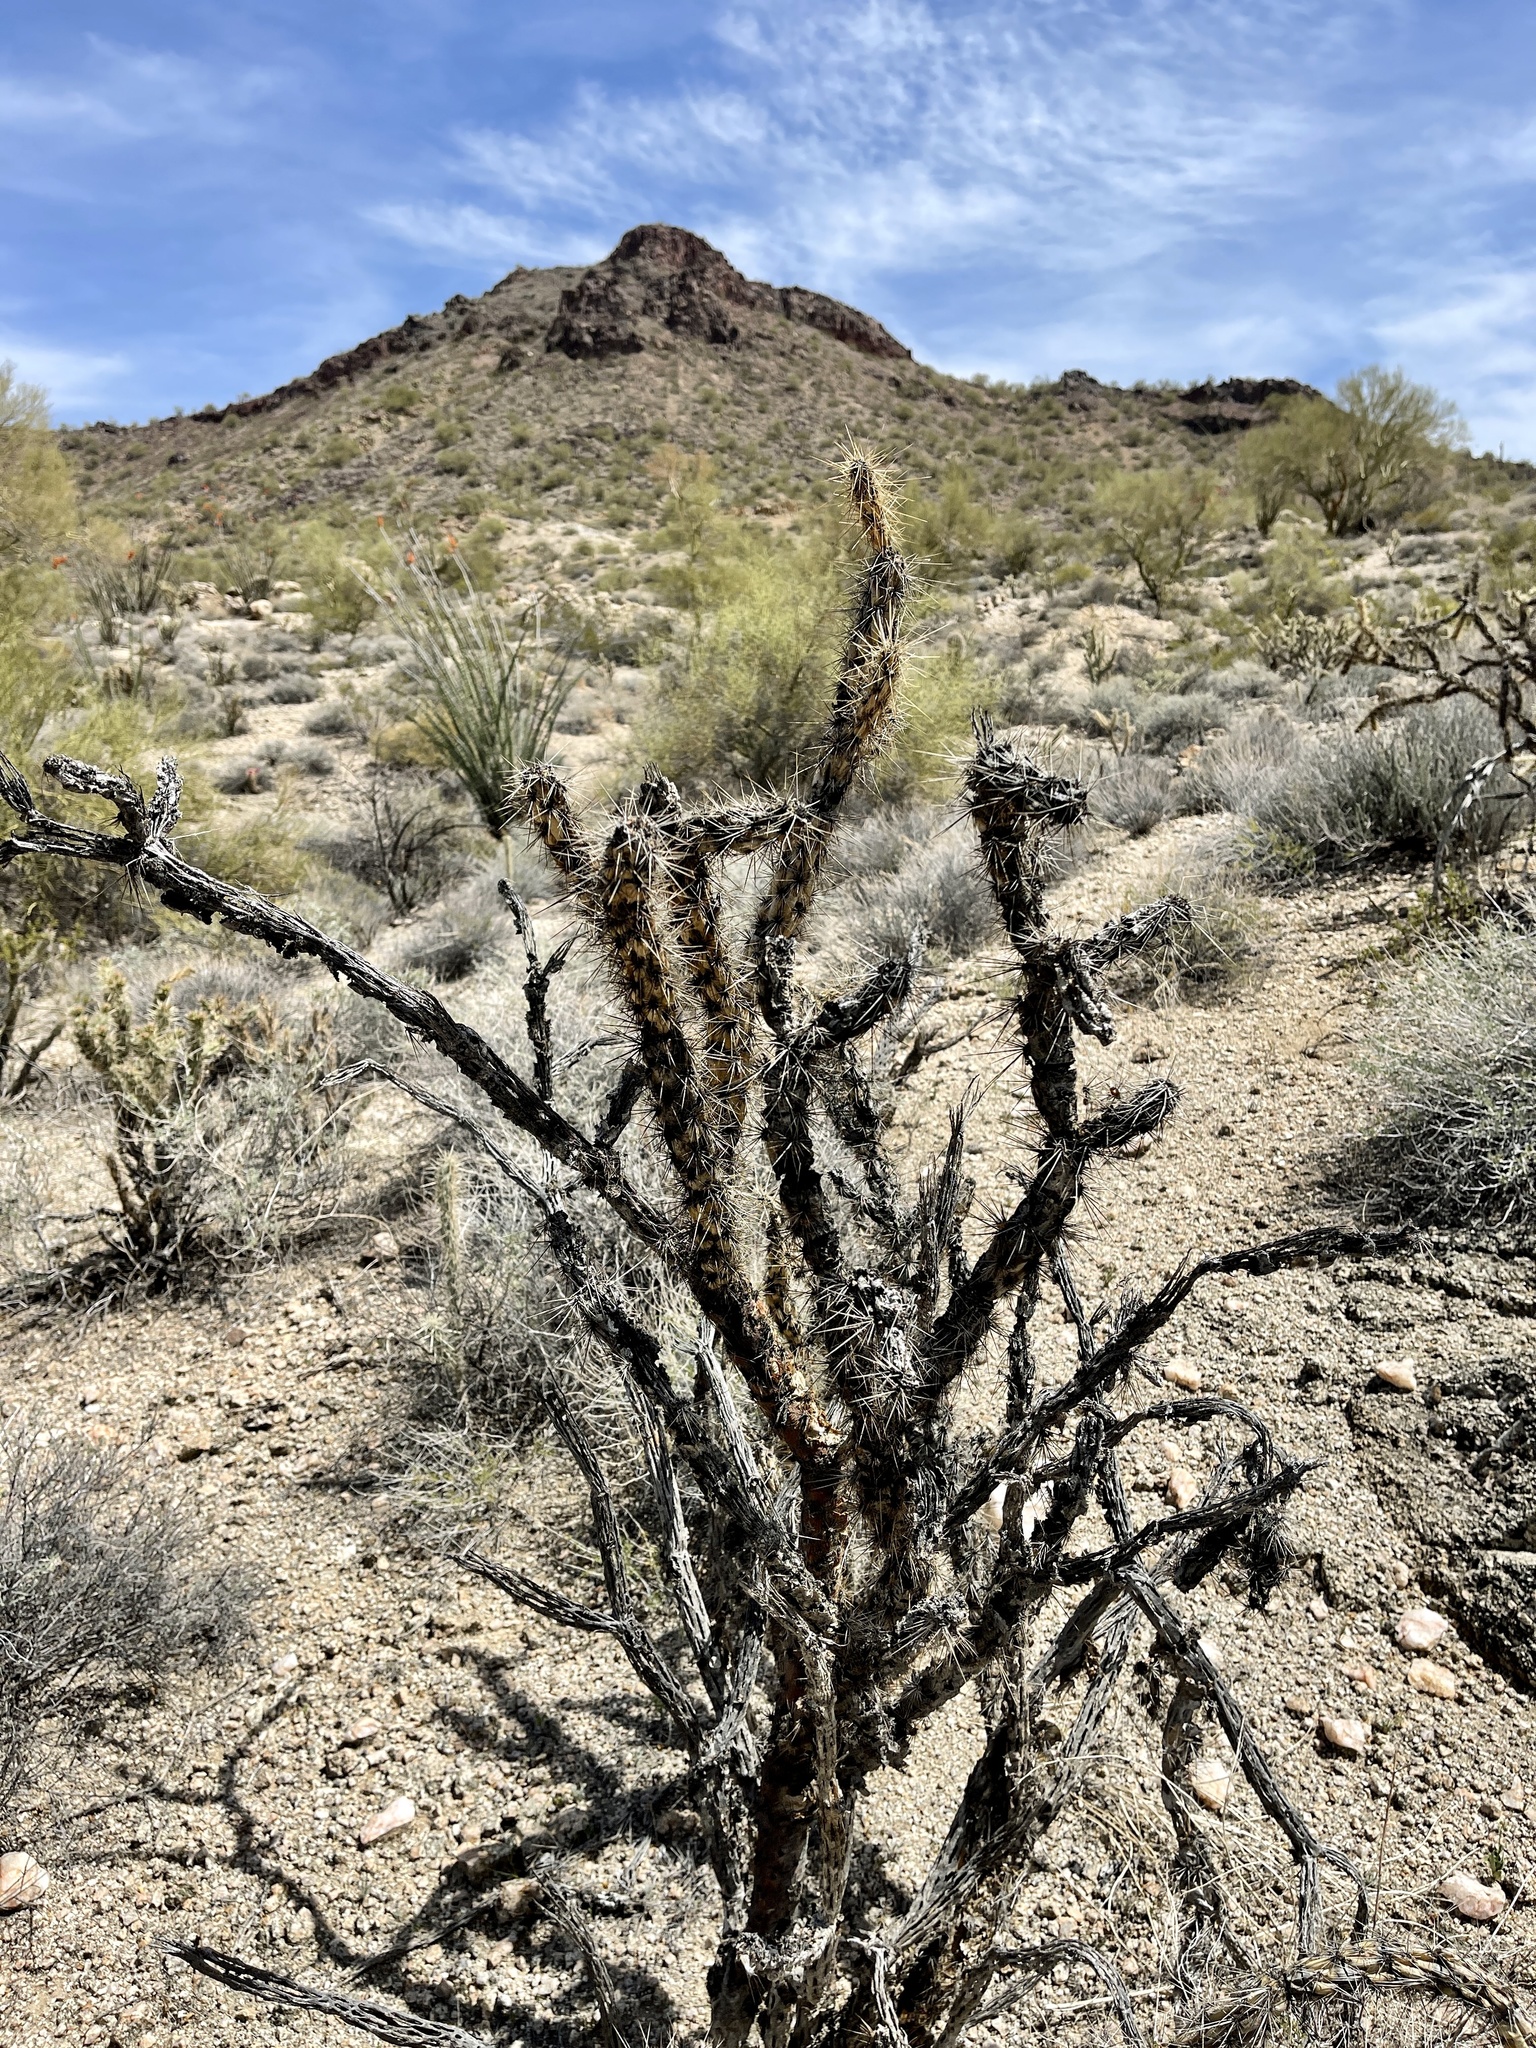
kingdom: Plantae
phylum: Tracheophyta
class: Magnoliopsida
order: Caryophyllales
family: Cactaceae
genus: Cylindropuntia
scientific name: Cylindropuntia acanthocarpa
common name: Buckhorn cholla
